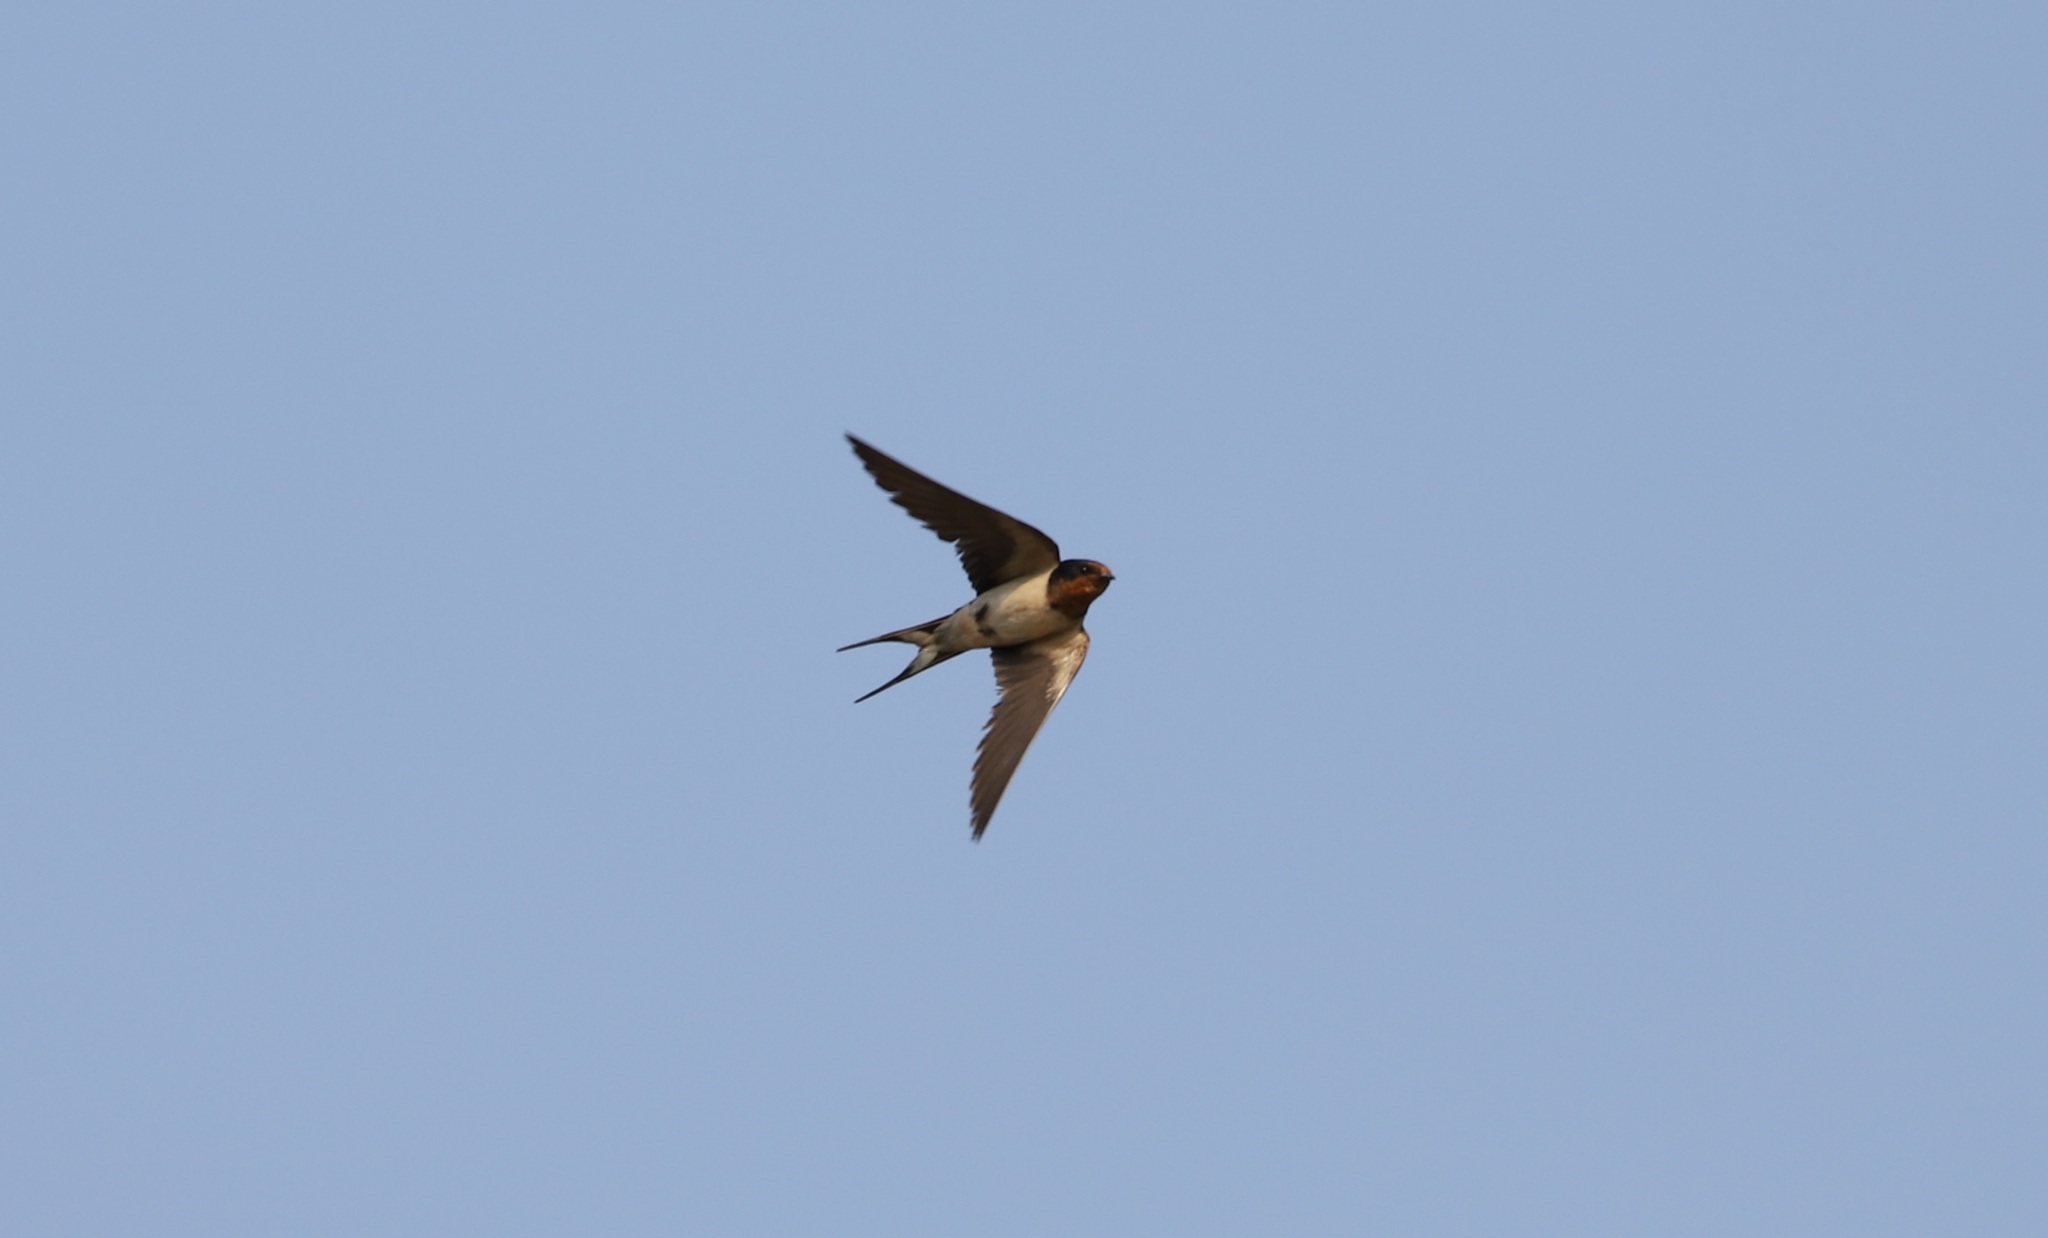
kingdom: Animalia
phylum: Chordata
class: Aves
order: Passeriformes
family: Hirundinidae
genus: Hirundo
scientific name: Hirundo rustica
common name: Barn swallow
